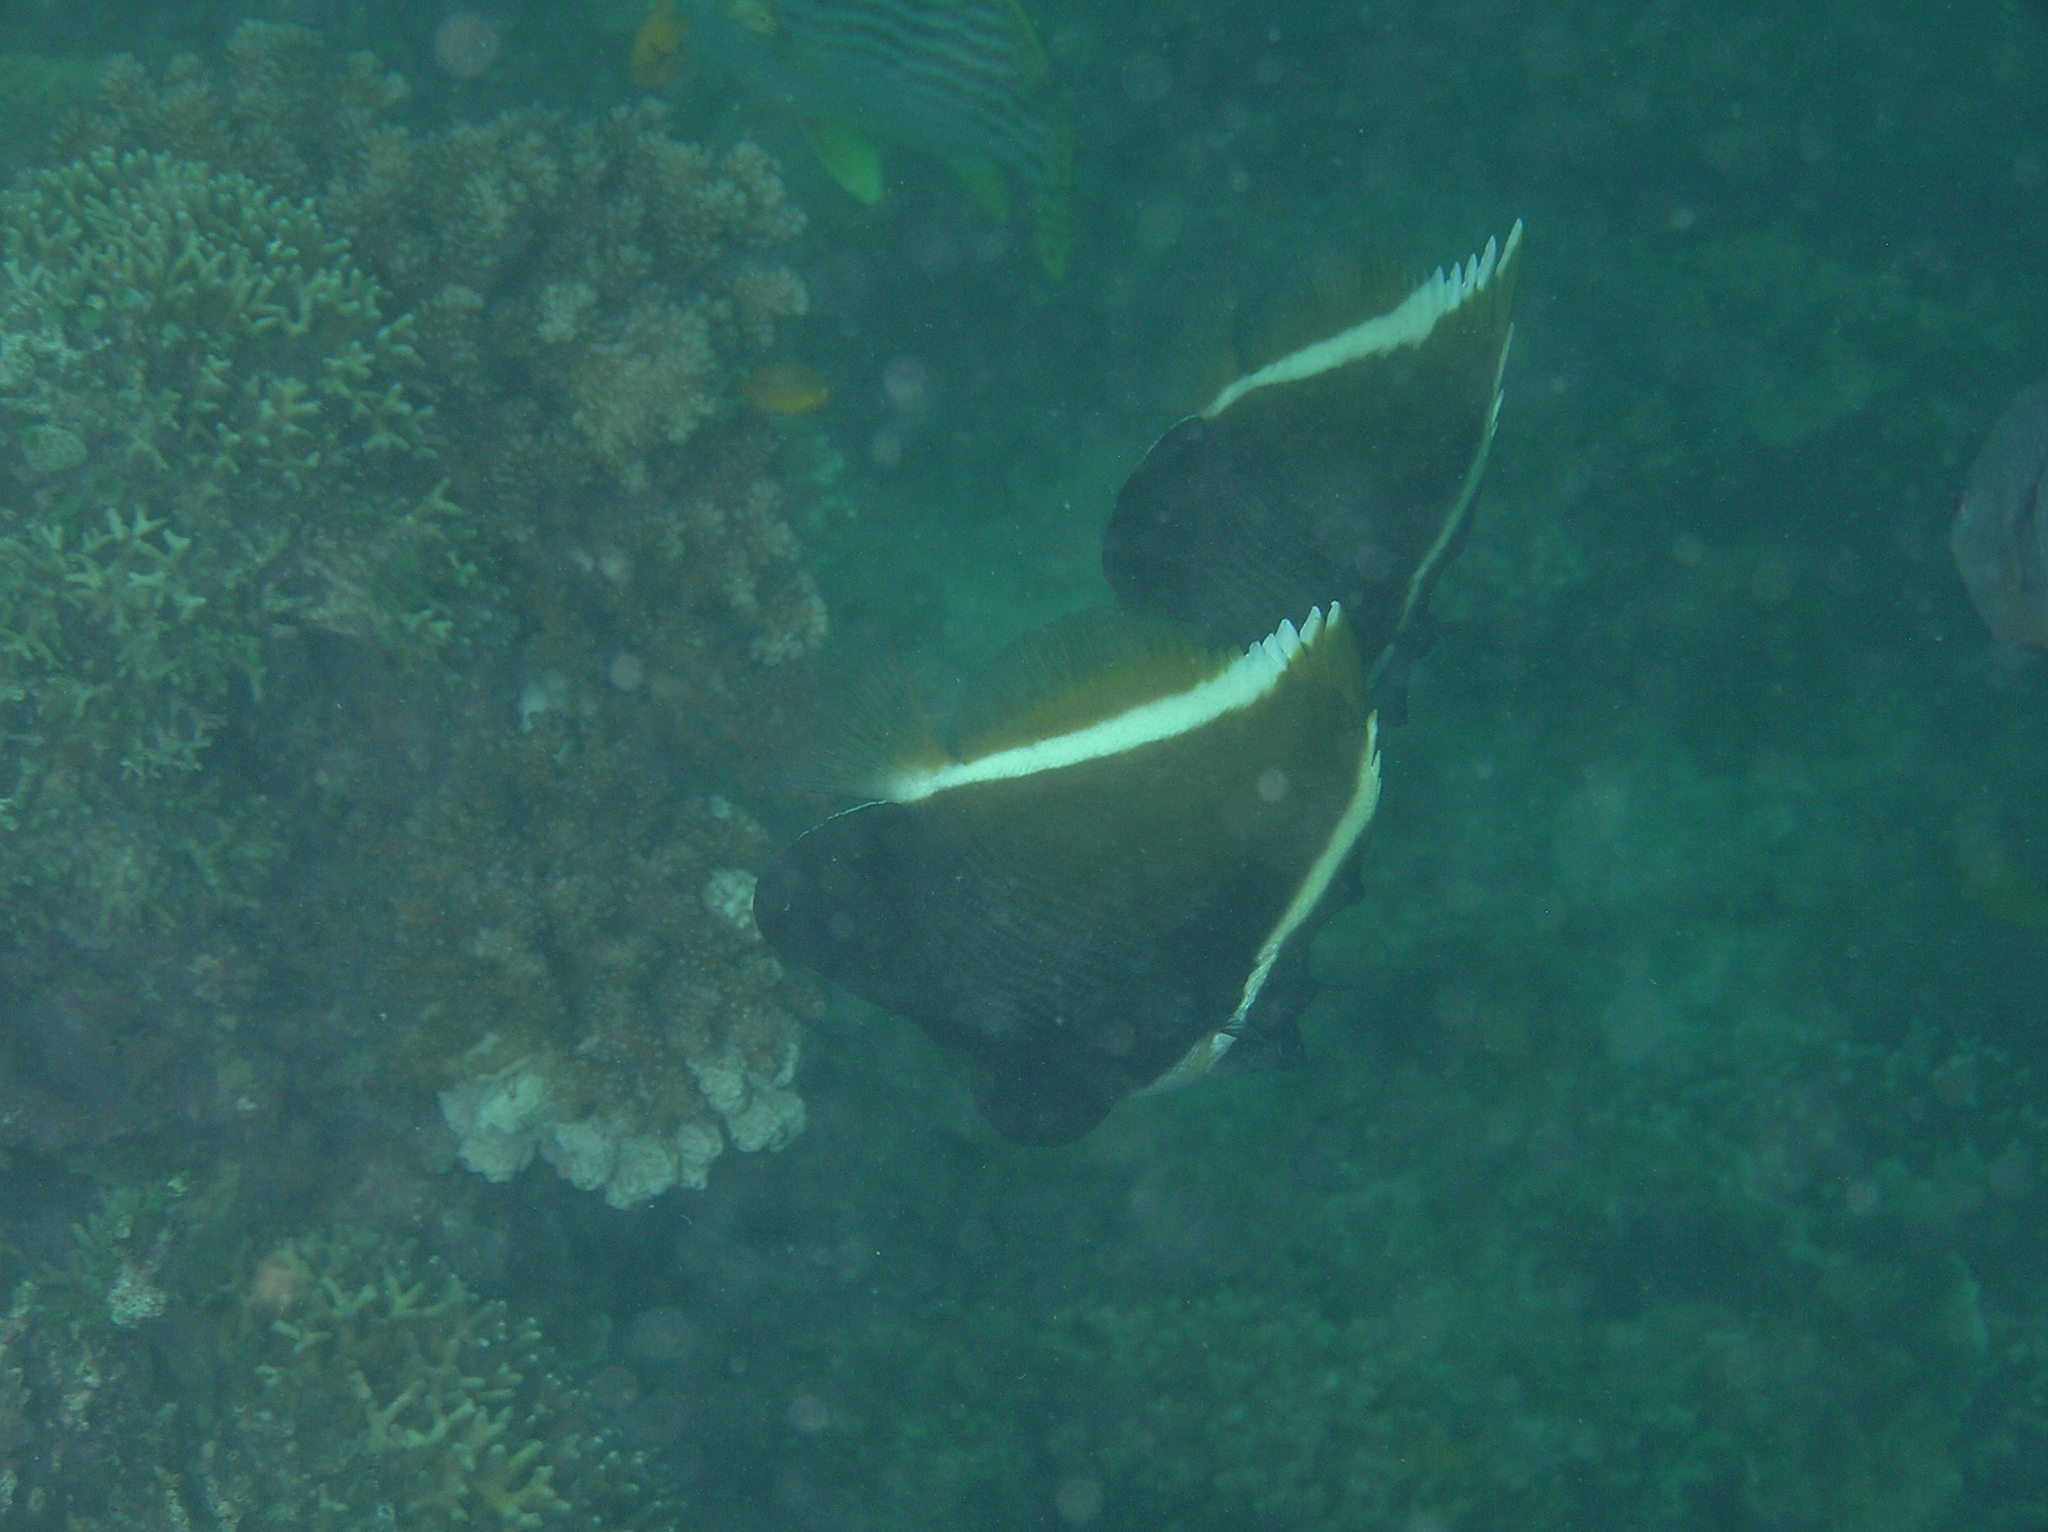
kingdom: Animalia
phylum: Chordata
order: Perciformes
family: Chaetodontidae
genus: Heniochus
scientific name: Heniochus varius
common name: Horned bannerfish
